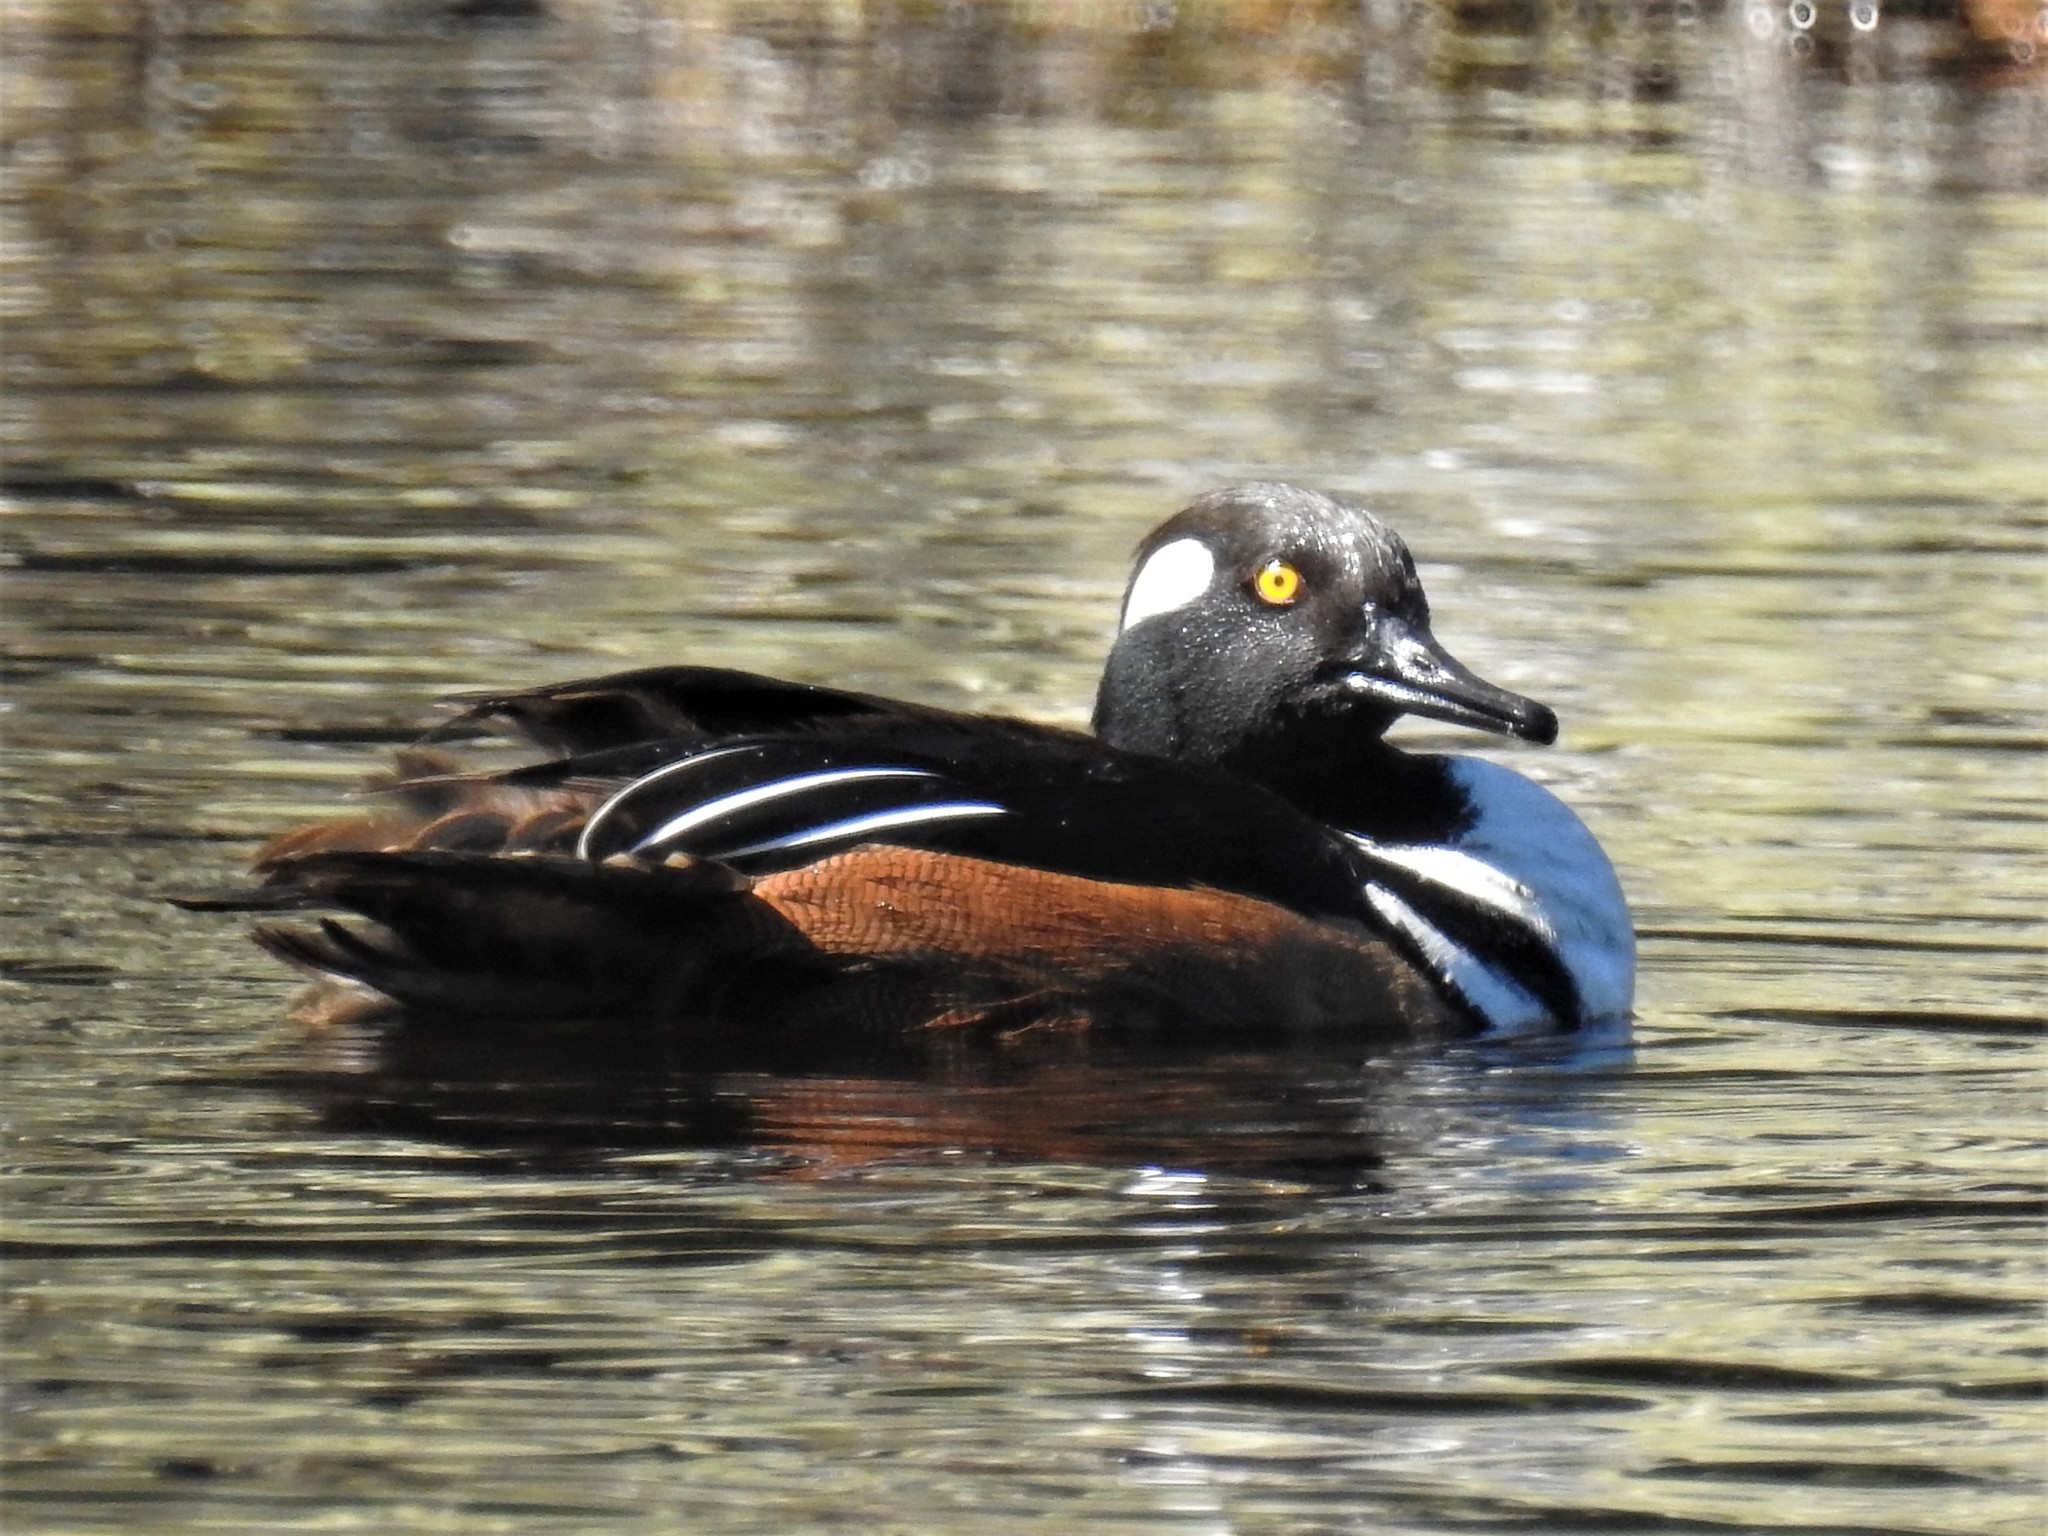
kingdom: Animalia
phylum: Chordata
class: Aves
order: Anseriformes
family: Anatidae
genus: Lophodytes
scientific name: Lophodytes cucullatus
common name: Hooded merganser
